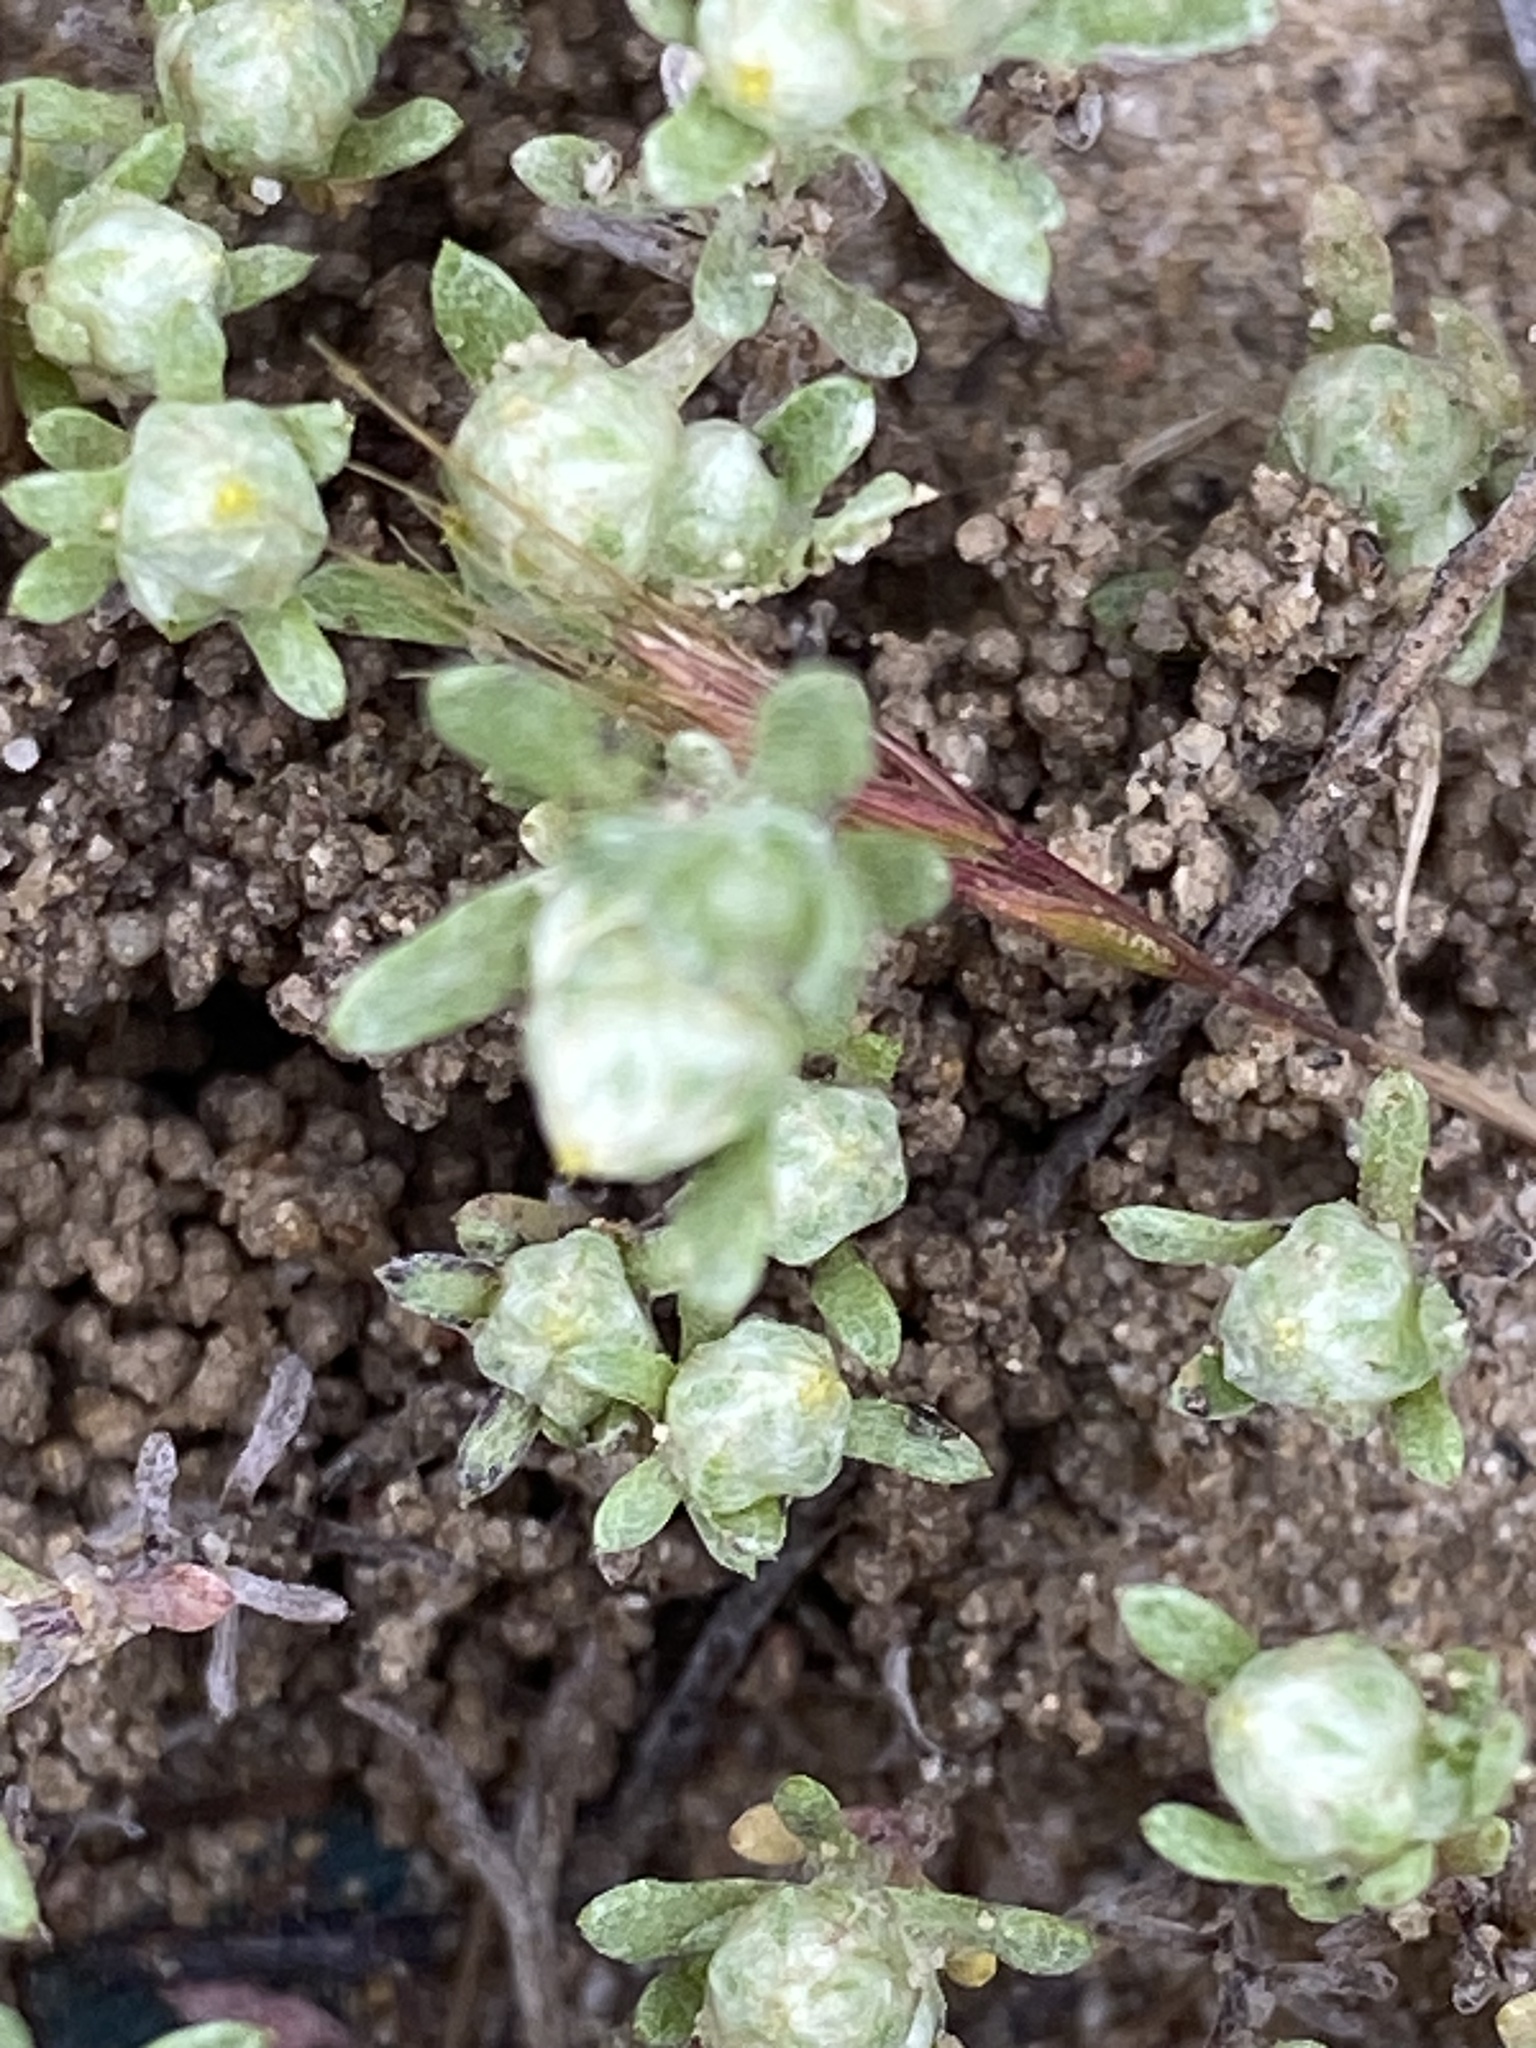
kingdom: Plantae
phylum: Tracheophyta
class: Magnoliopsida
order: Asterales
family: Asteraceae
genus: Stylocline
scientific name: Stylocline gnaphaloides
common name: Everlasting nest-straw
